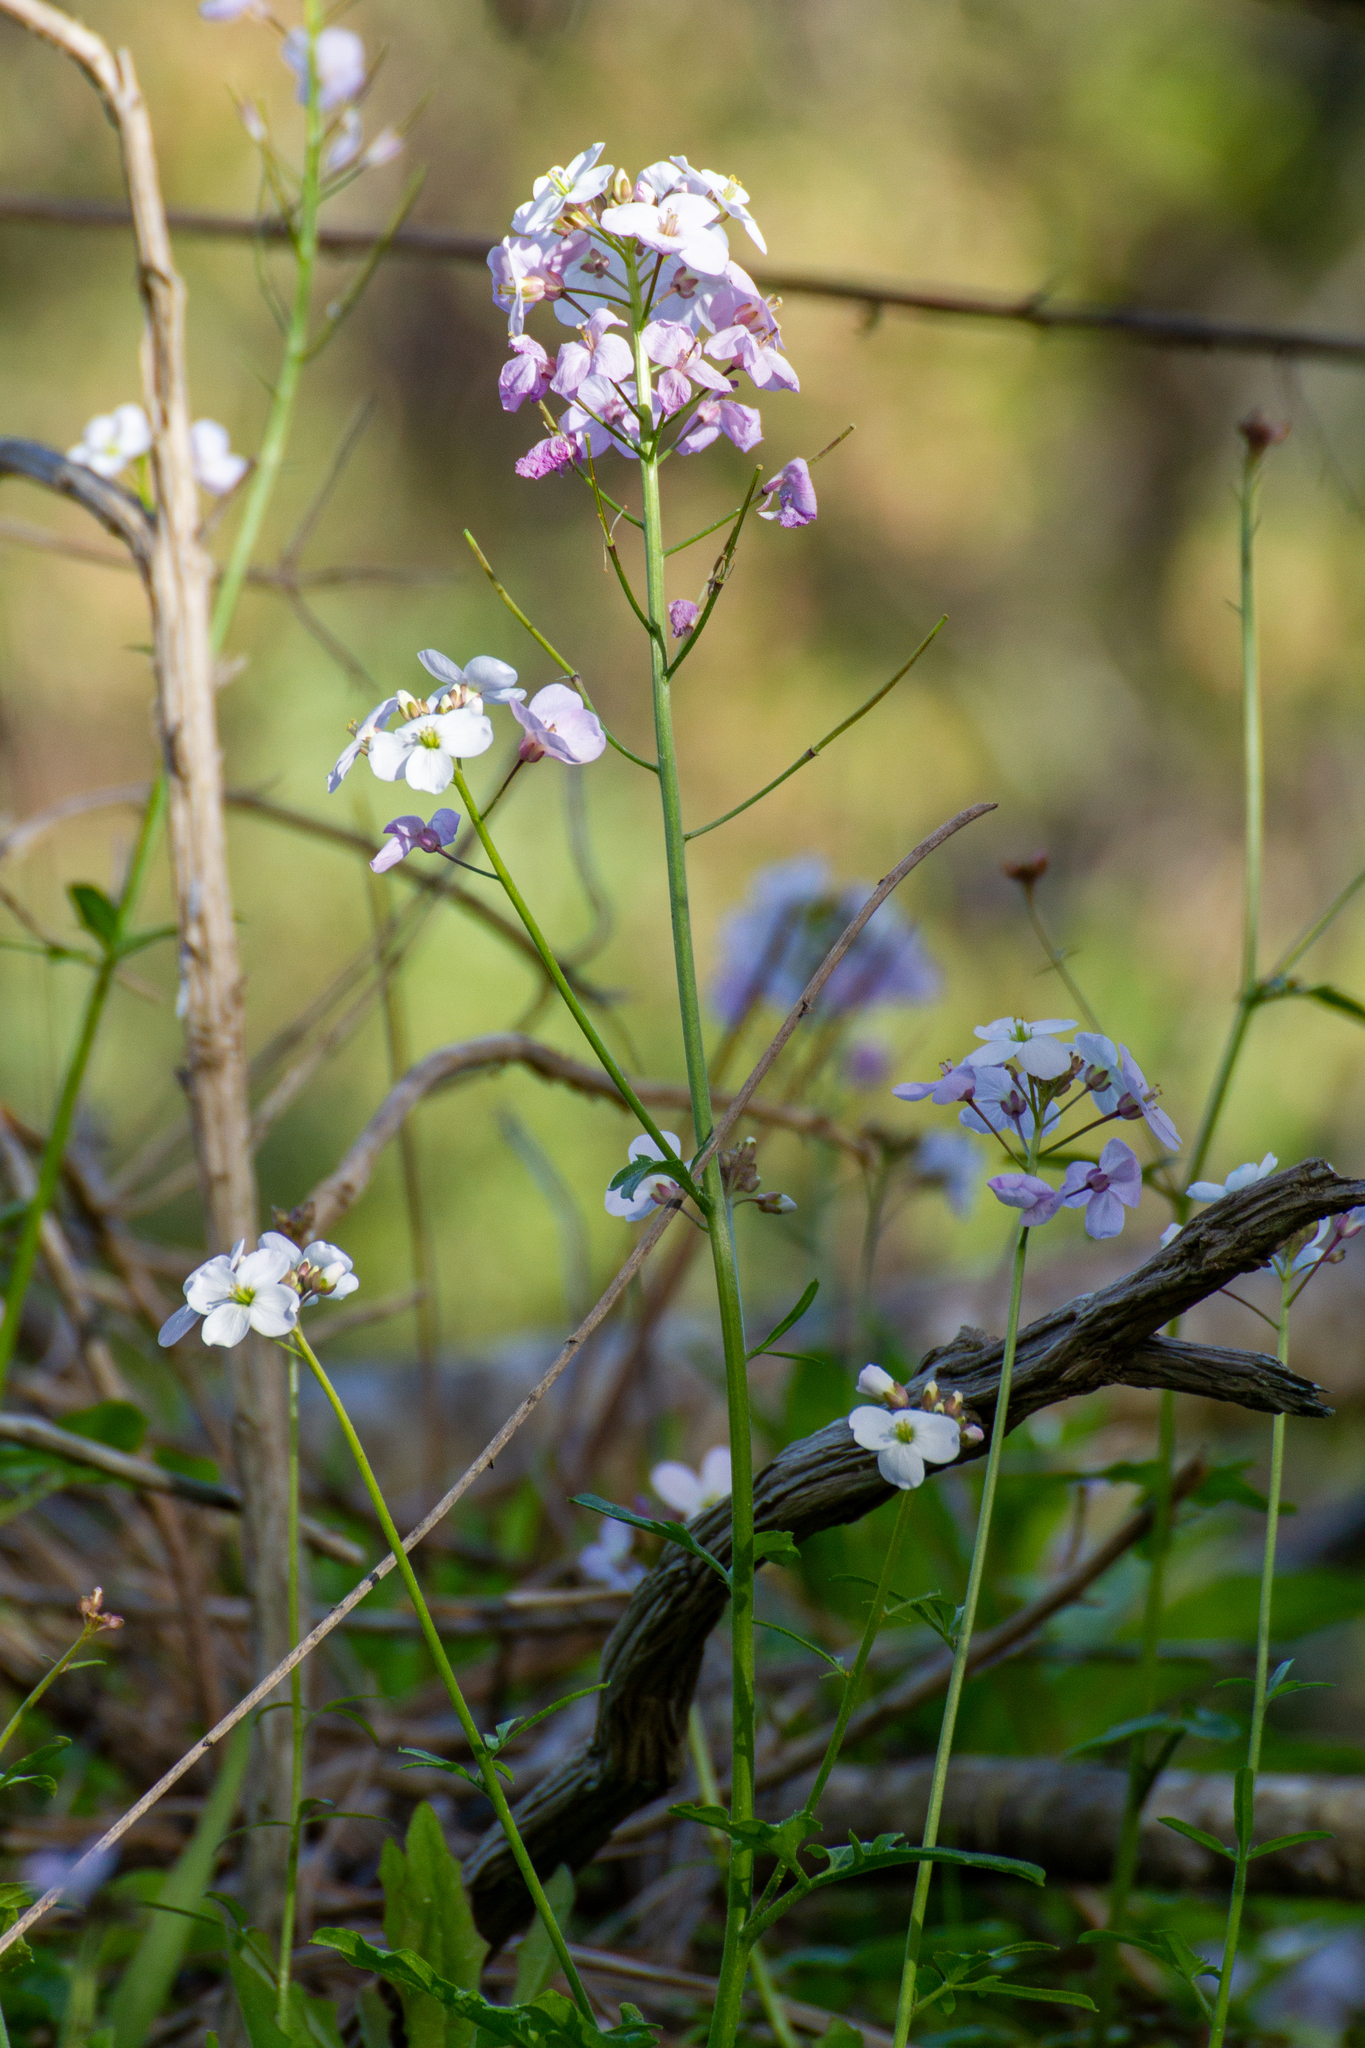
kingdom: Plantae
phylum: Tracheophyta
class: Magnoliopsida
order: Brassicales
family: Brassicaceae
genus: Cardamine
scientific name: Cardamine californica
